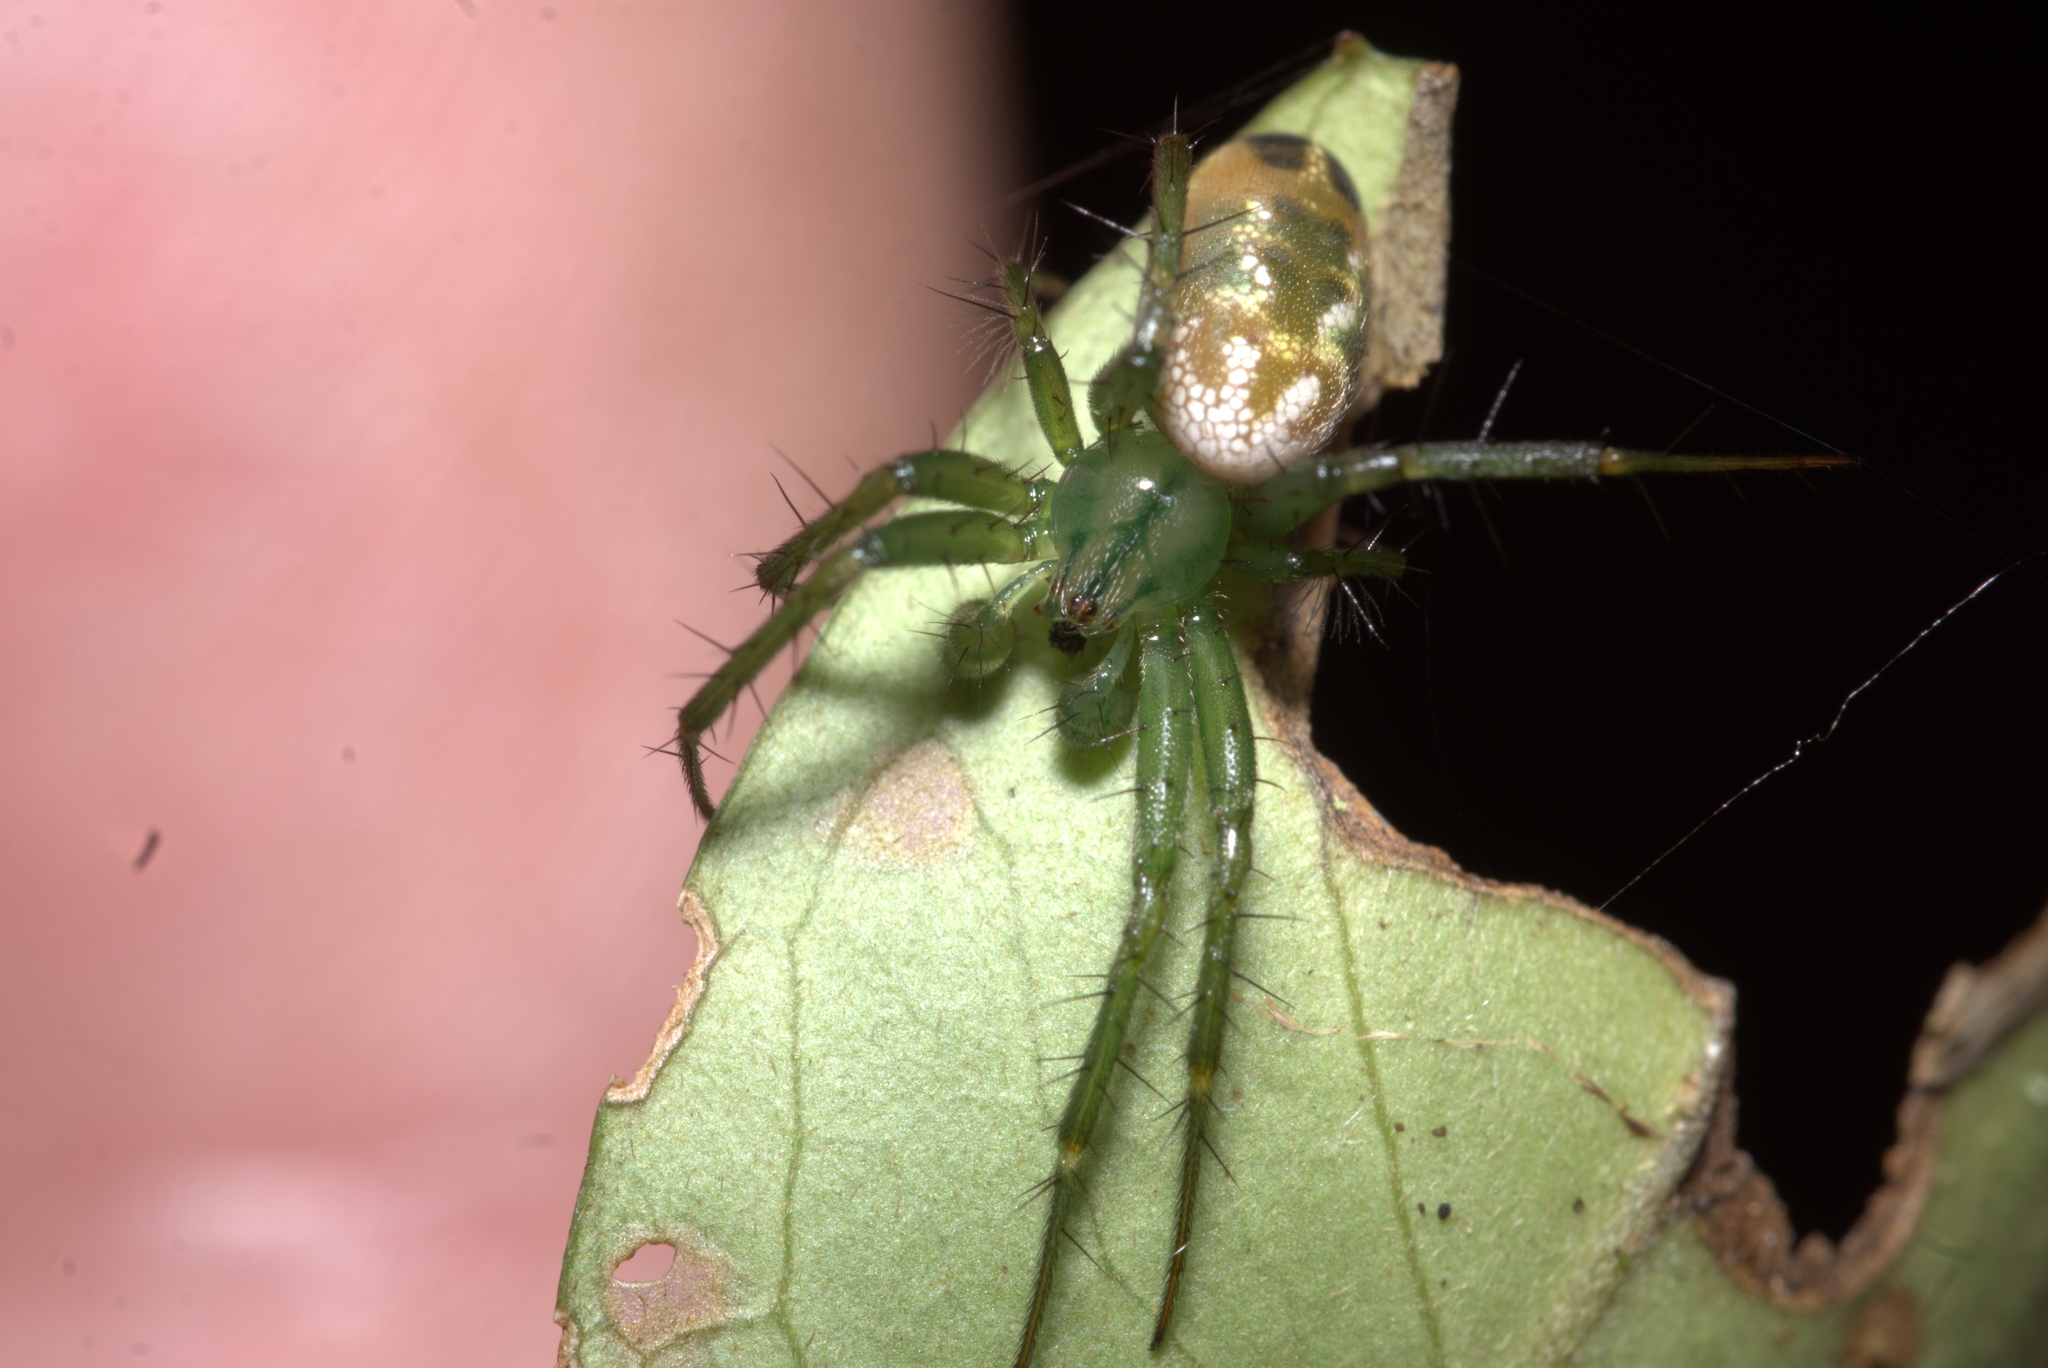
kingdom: Animalia
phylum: Arthropoda
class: Arachnida
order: Araneae
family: Araneidae
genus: Mangora
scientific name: Mangora strenua
